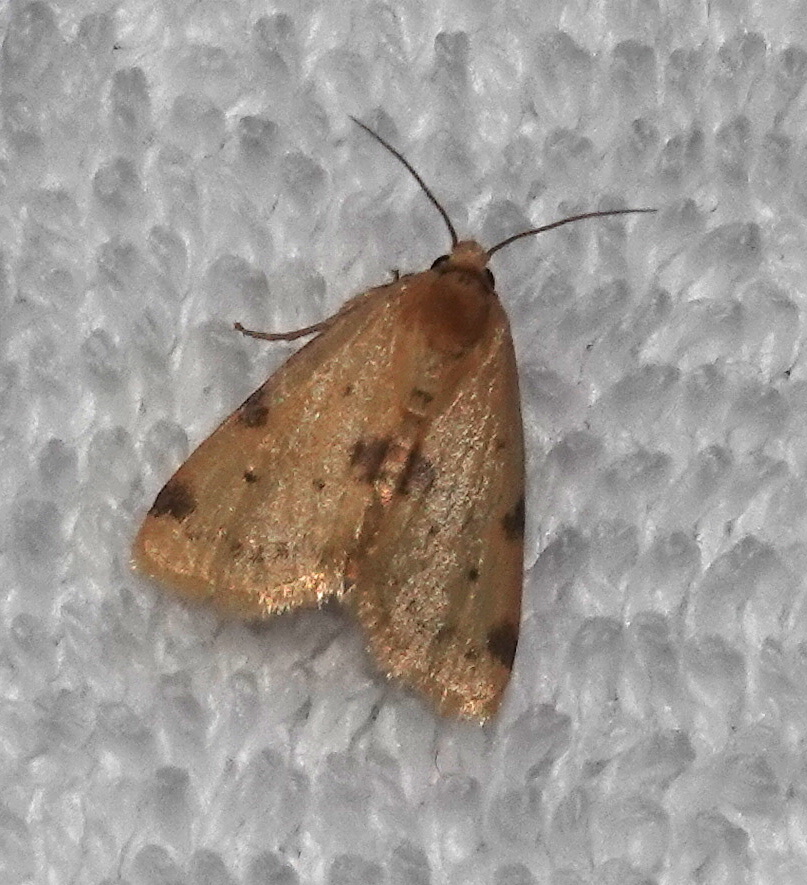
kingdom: Animalia
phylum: Arthropoda
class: Insecta
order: Lepidoptera
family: Noctuidae
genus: Azenia
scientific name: Azenia procida
